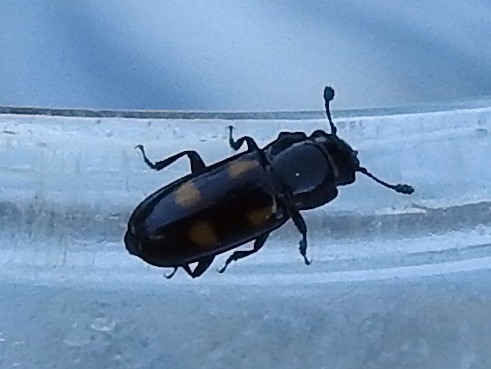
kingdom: Animalia
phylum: Arthropoda
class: Insecta
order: Coleoptera
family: Nitidulidae
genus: Glischrochilus
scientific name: Glischrochilus quadripunctatus
